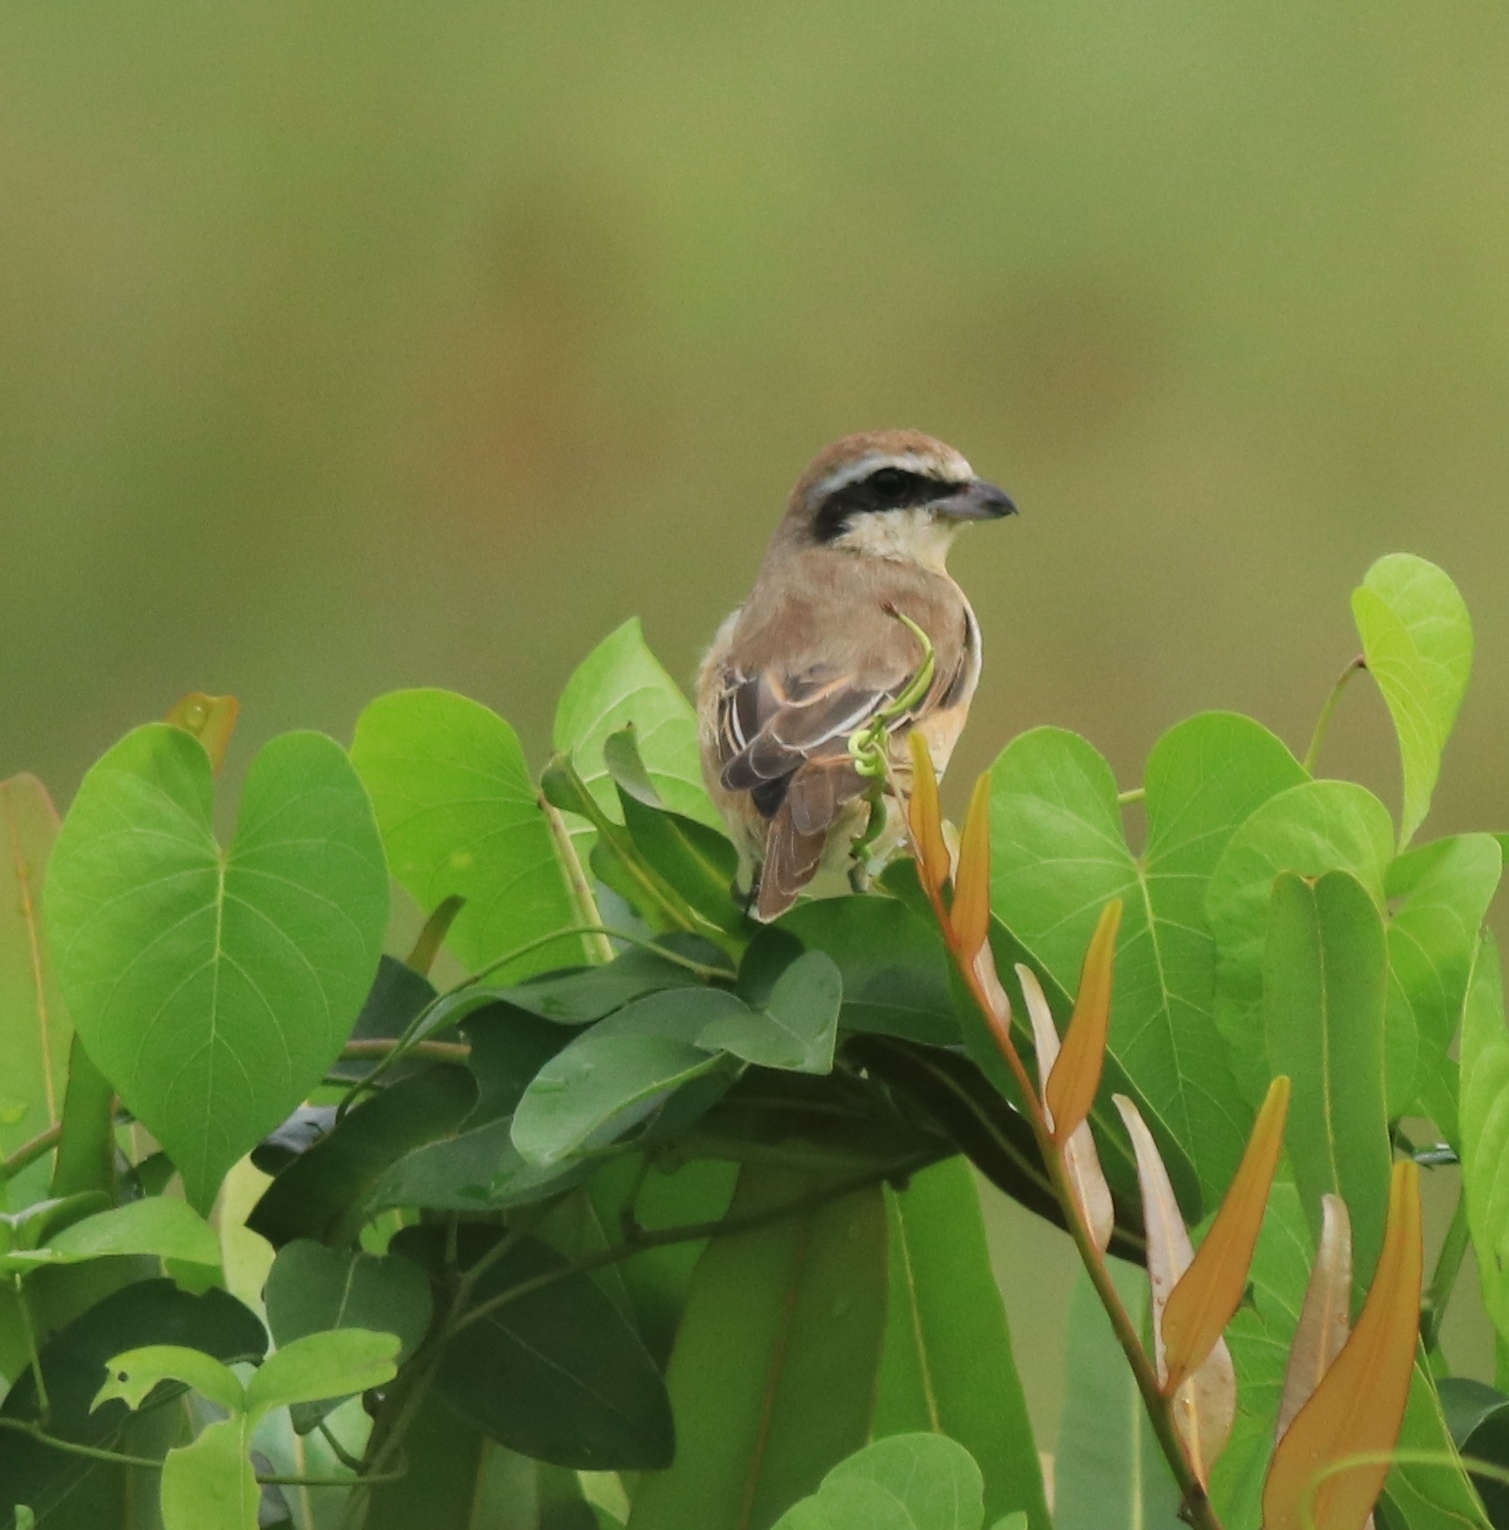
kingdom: Animalia
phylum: Chordata
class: Aves
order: Passeriformes
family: Laniidae
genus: Lanius
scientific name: Lanius cristatus
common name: Brown shrike
